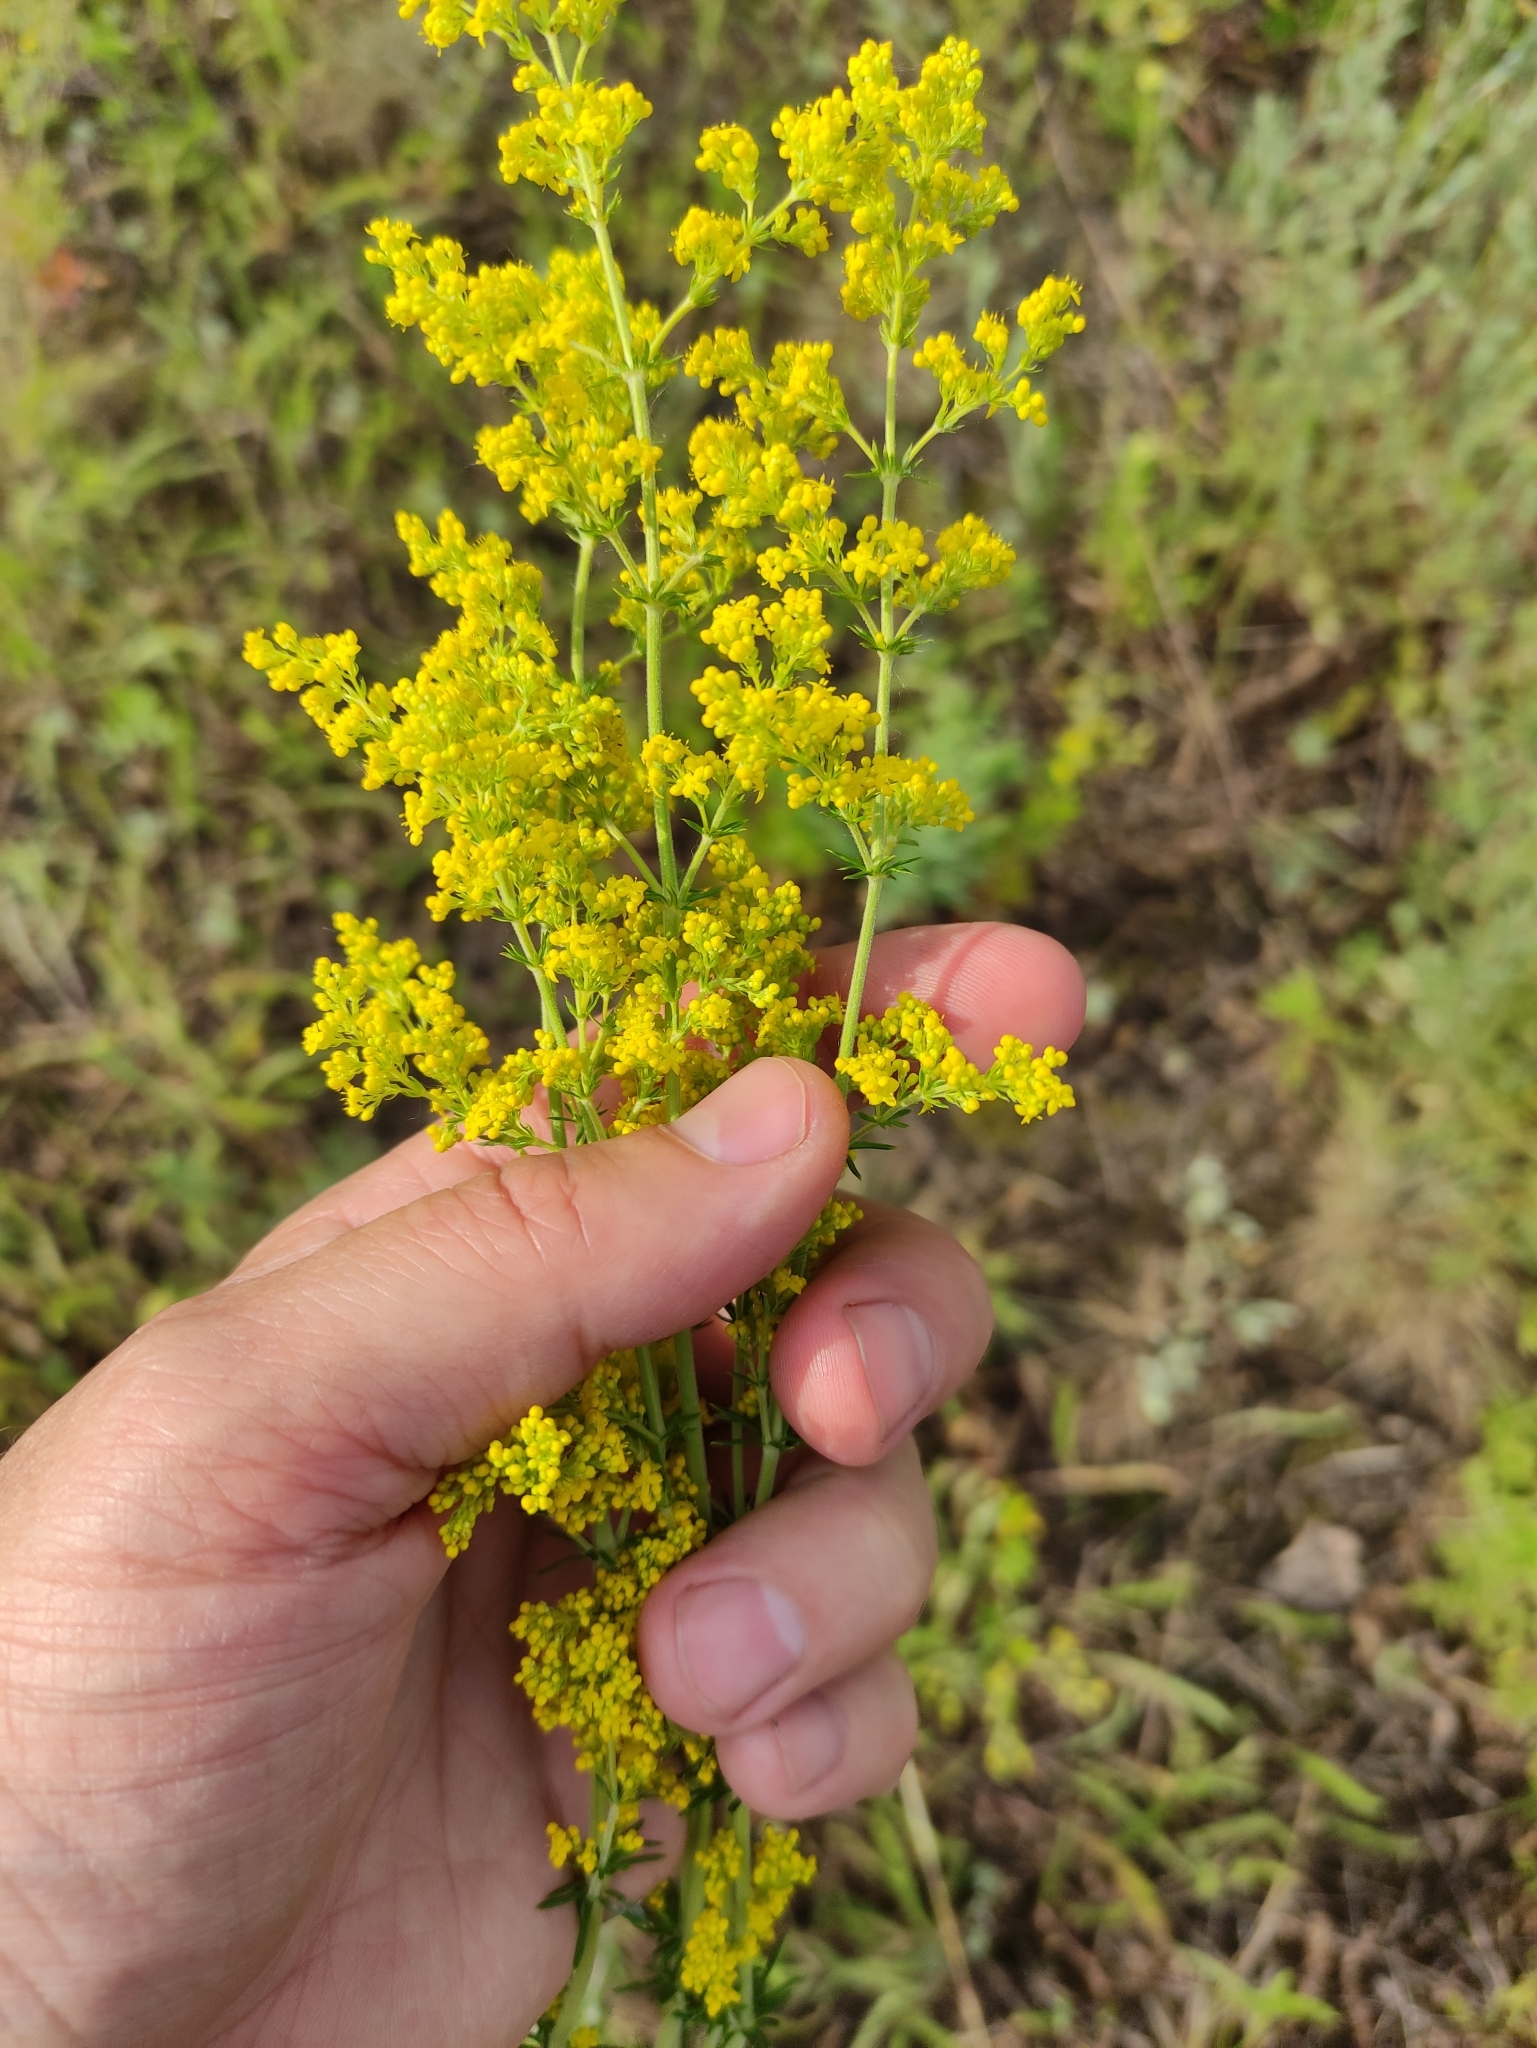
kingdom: Plantae
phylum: Tracheophyta
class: Magnoliopsida
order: Gentianales
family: Rubiaceae
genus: Galium
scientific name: Galium verum
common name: Lady's bedstraw
